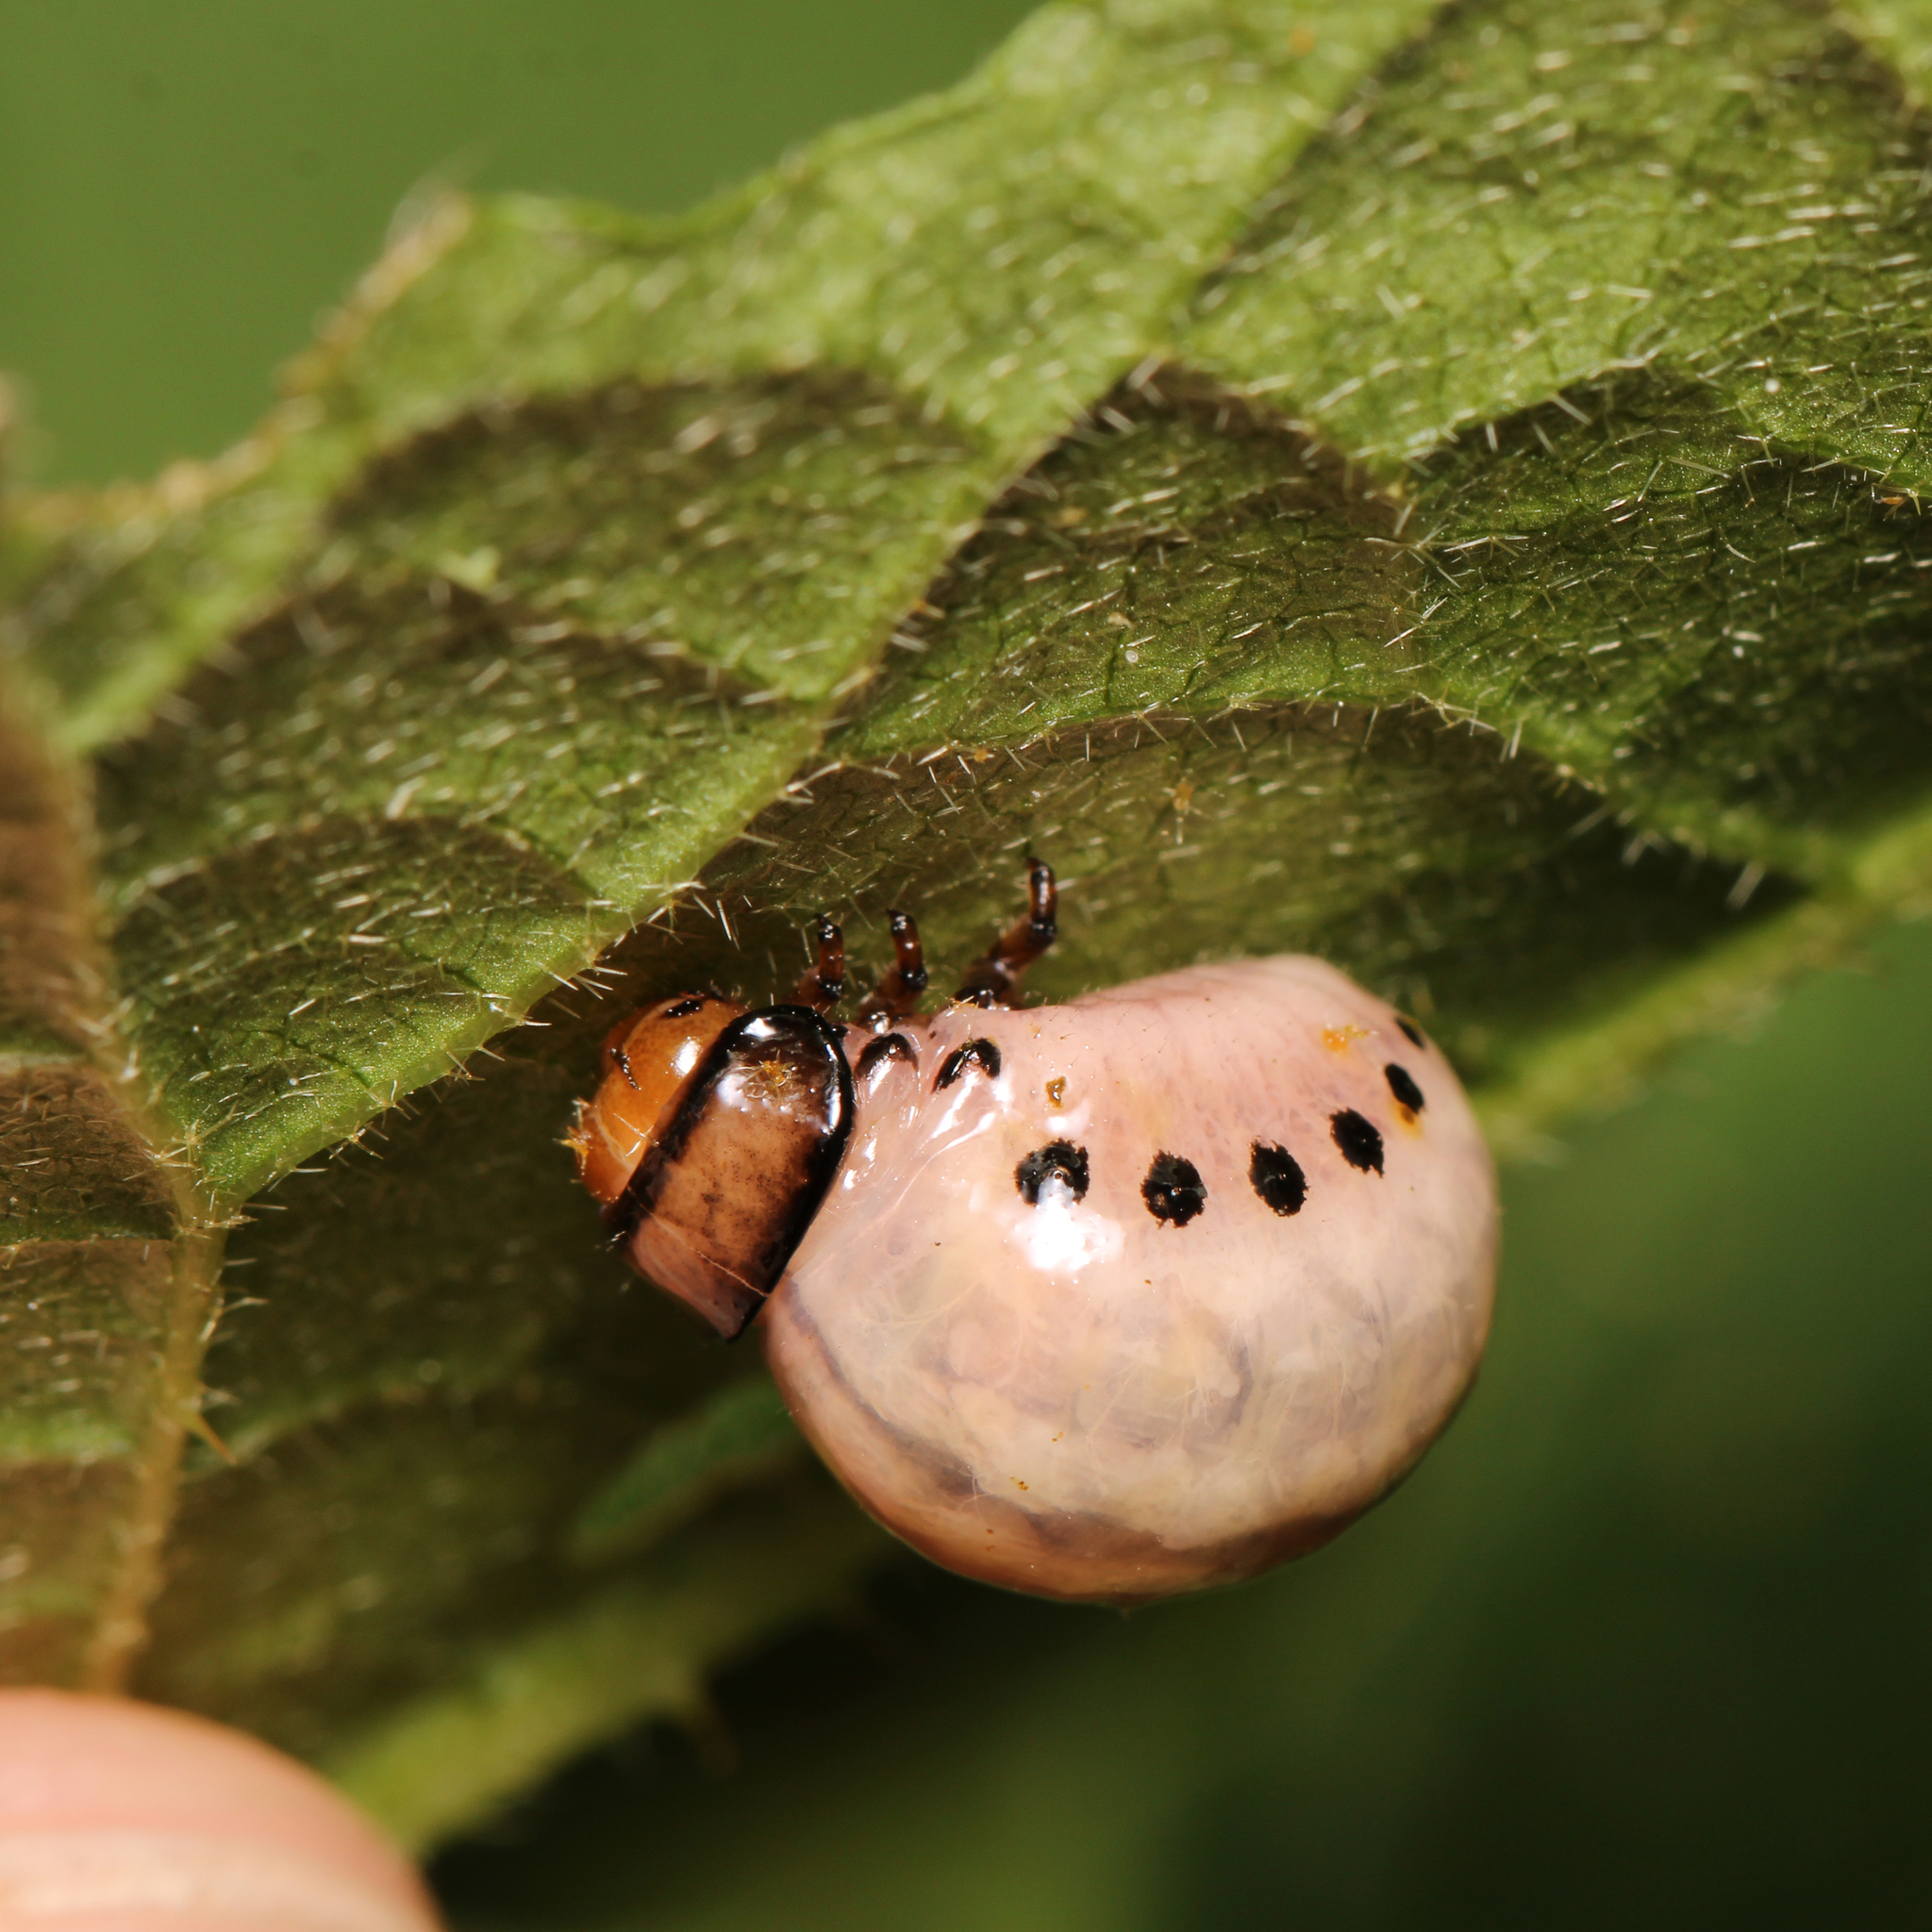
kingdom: Animalia
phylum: Arthropoda
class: Insecta
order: Coleoptera
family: Chrysomelidae
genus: Leptinotarsa
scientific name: Leptinotarsa juncta
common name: False potato beetle
